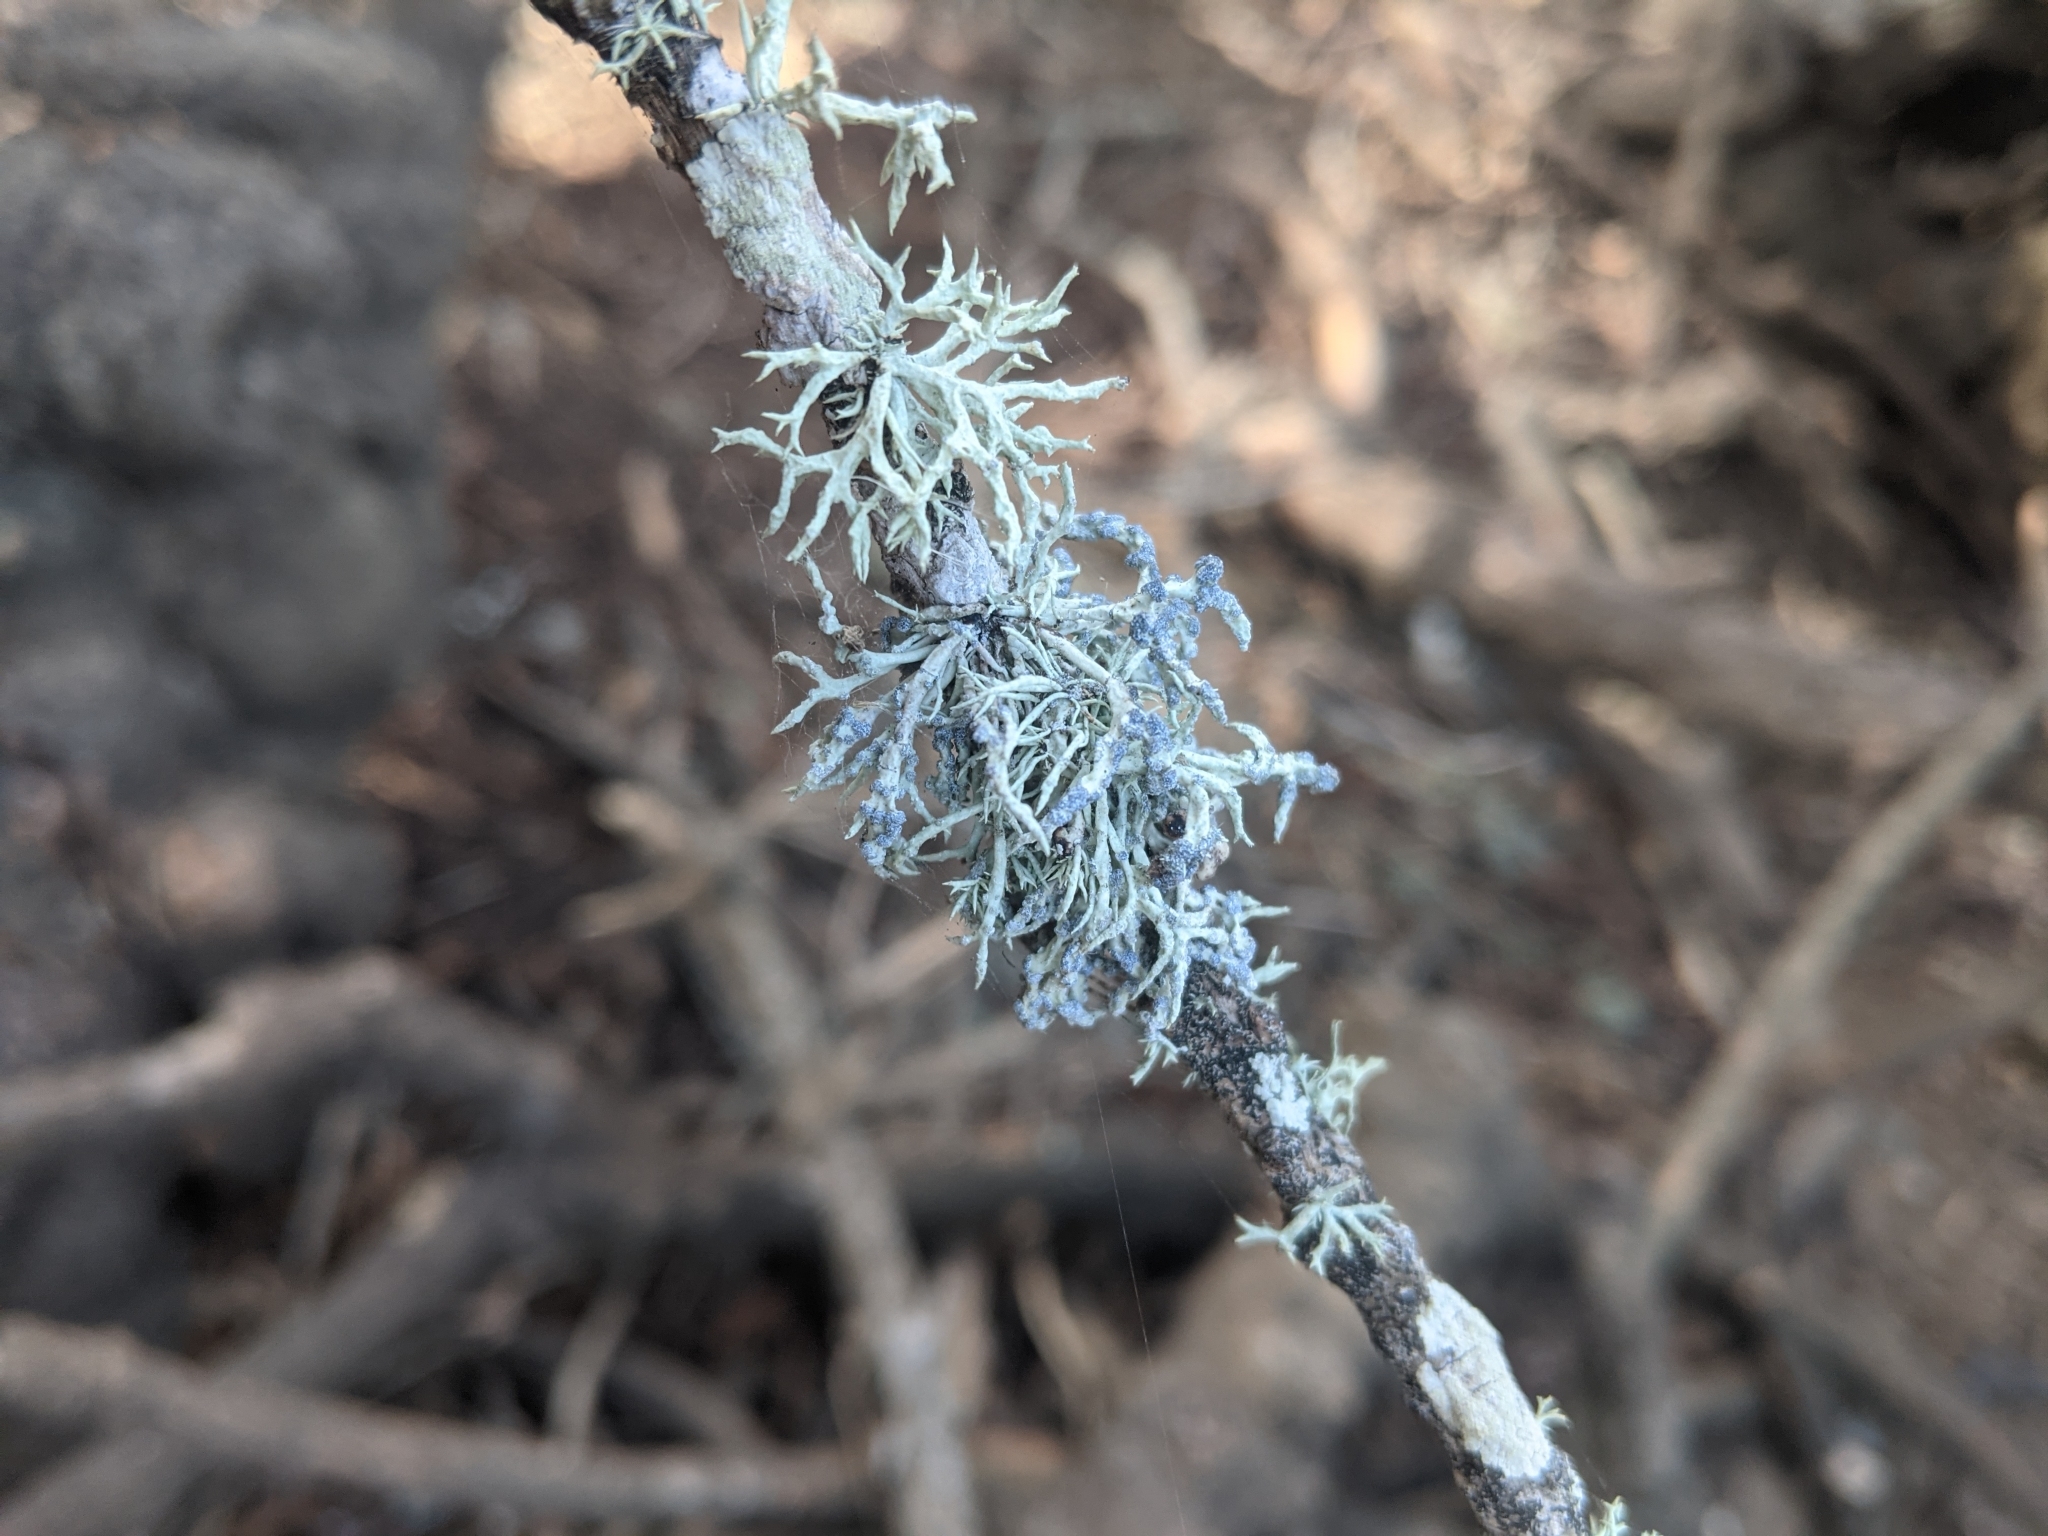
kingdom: Fungi
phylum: Ascomycota
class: Lecanoromycetes
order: Lecanorales
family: Ramalinaceae
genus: Niebla
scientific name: Niebla cephalota
